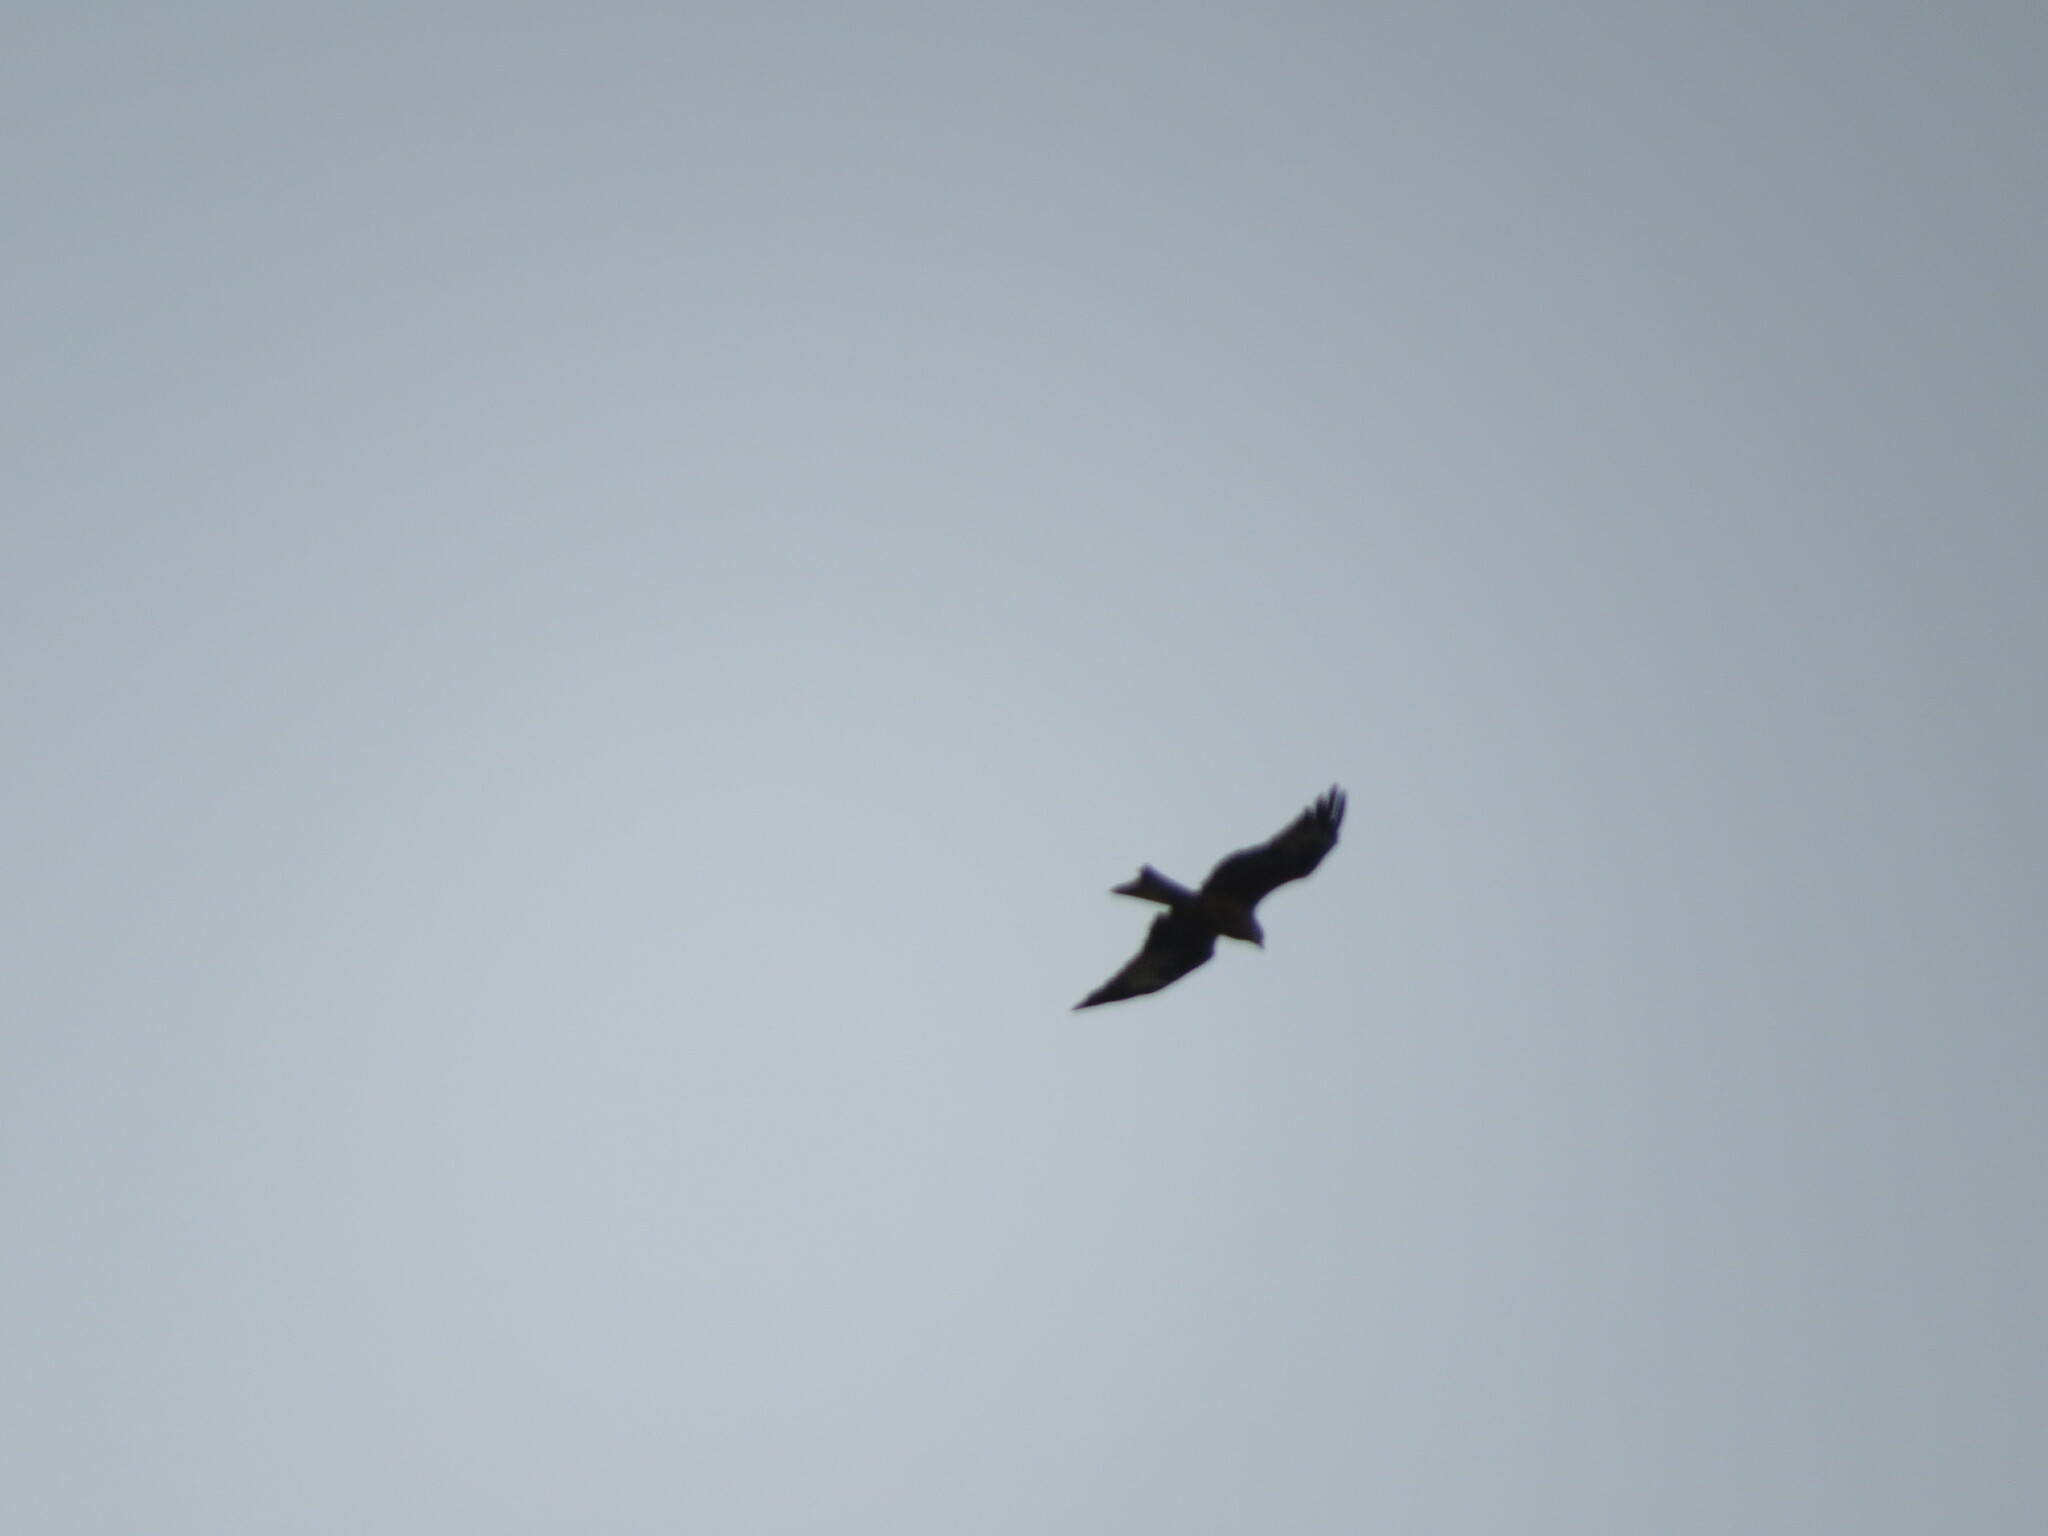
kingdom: Animalia
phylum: Chordata
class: Aves
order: Accipitriformes
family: Accipitridae
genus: Milvus
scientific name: Milvus migrans
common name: Black kite
